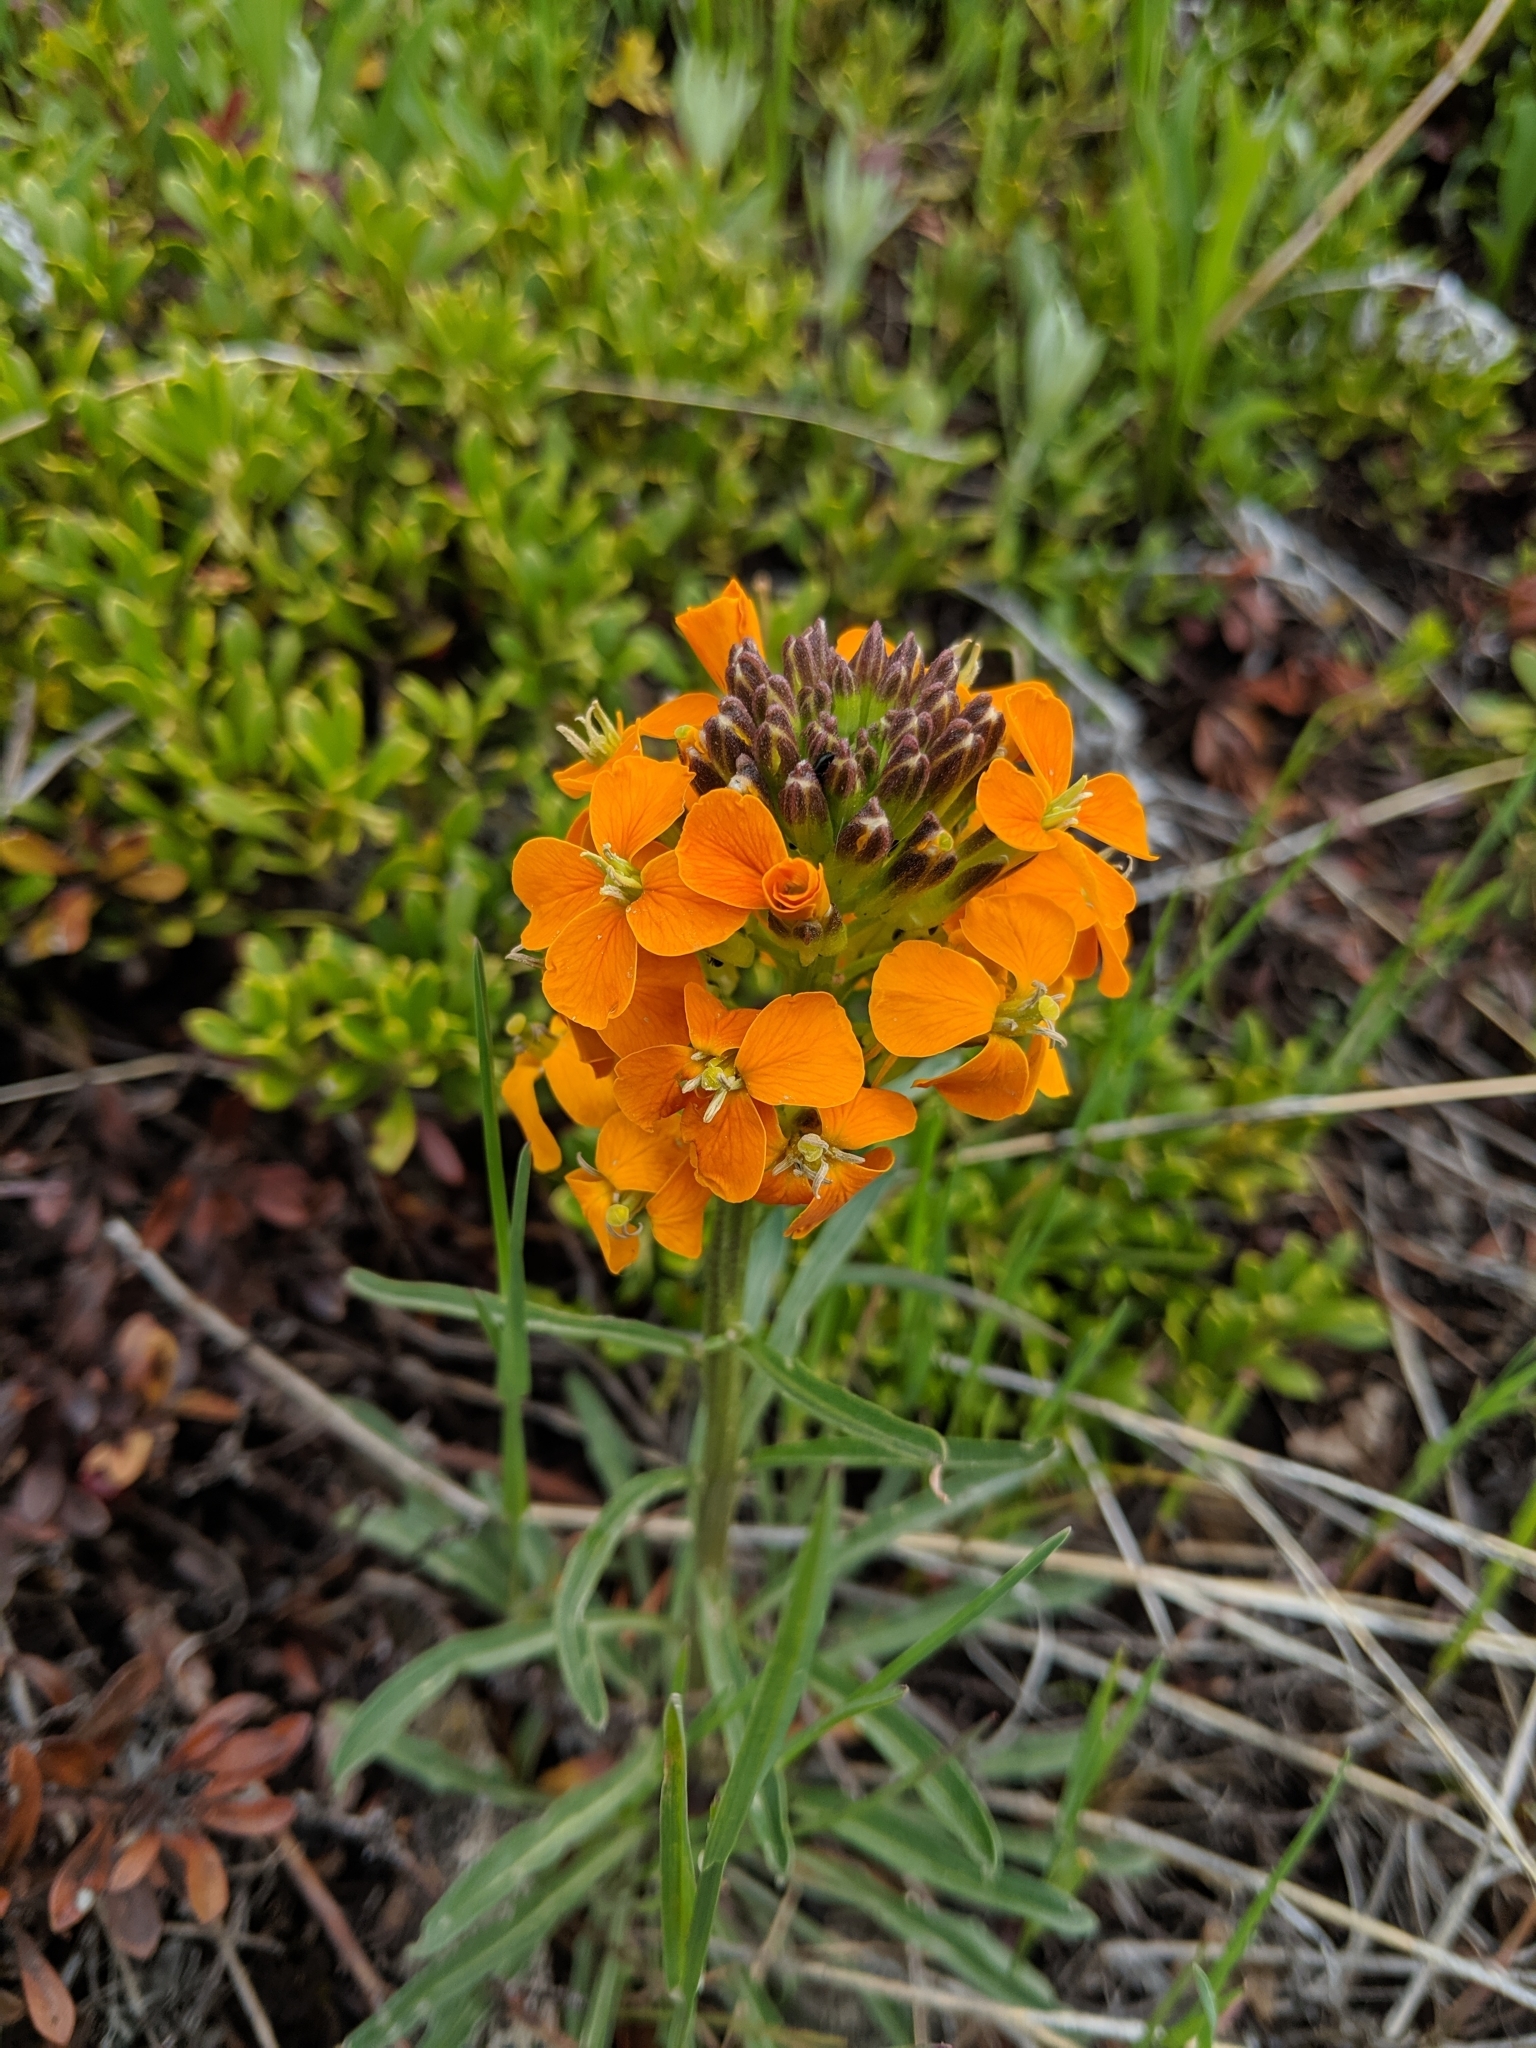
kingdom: Plantae
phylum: Tracheophyta
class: Magnoliopsida
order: Brassicales
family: Brassicaceae
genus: Erysimum
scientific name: Erysimum capitatum
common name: Western wallflower
